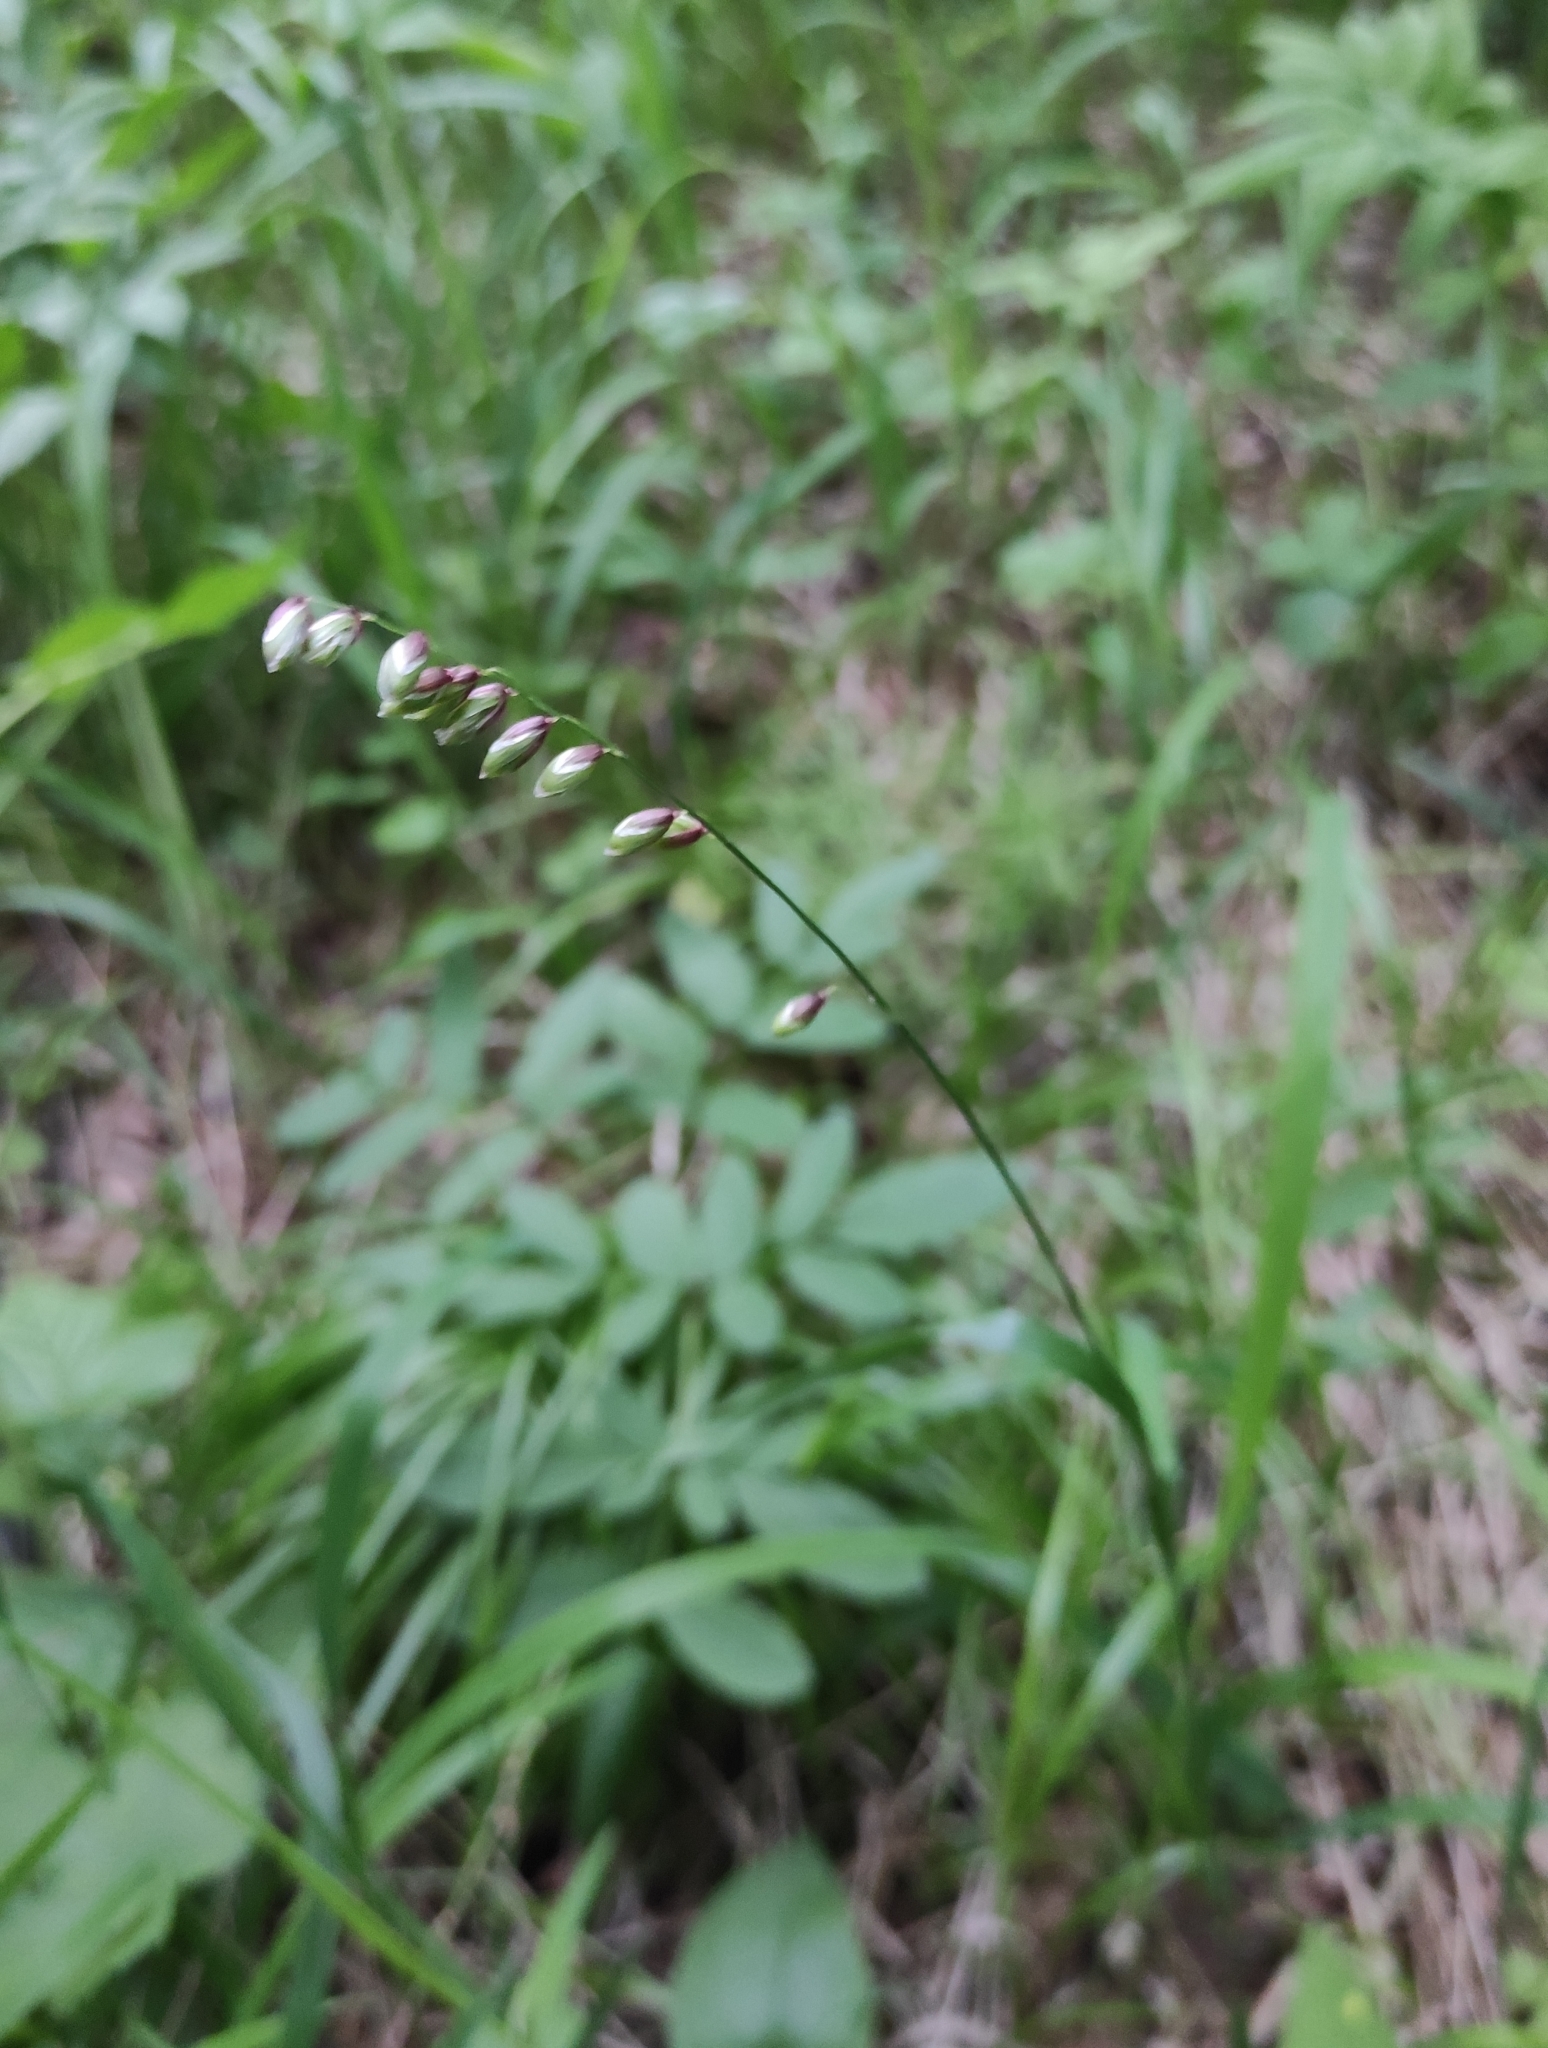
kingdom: Plantae
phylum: Tracheophyta
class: Liliopsida
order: Poales
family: Poaceae
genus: Melica
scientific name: Melica nutans
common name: Mountain melick
